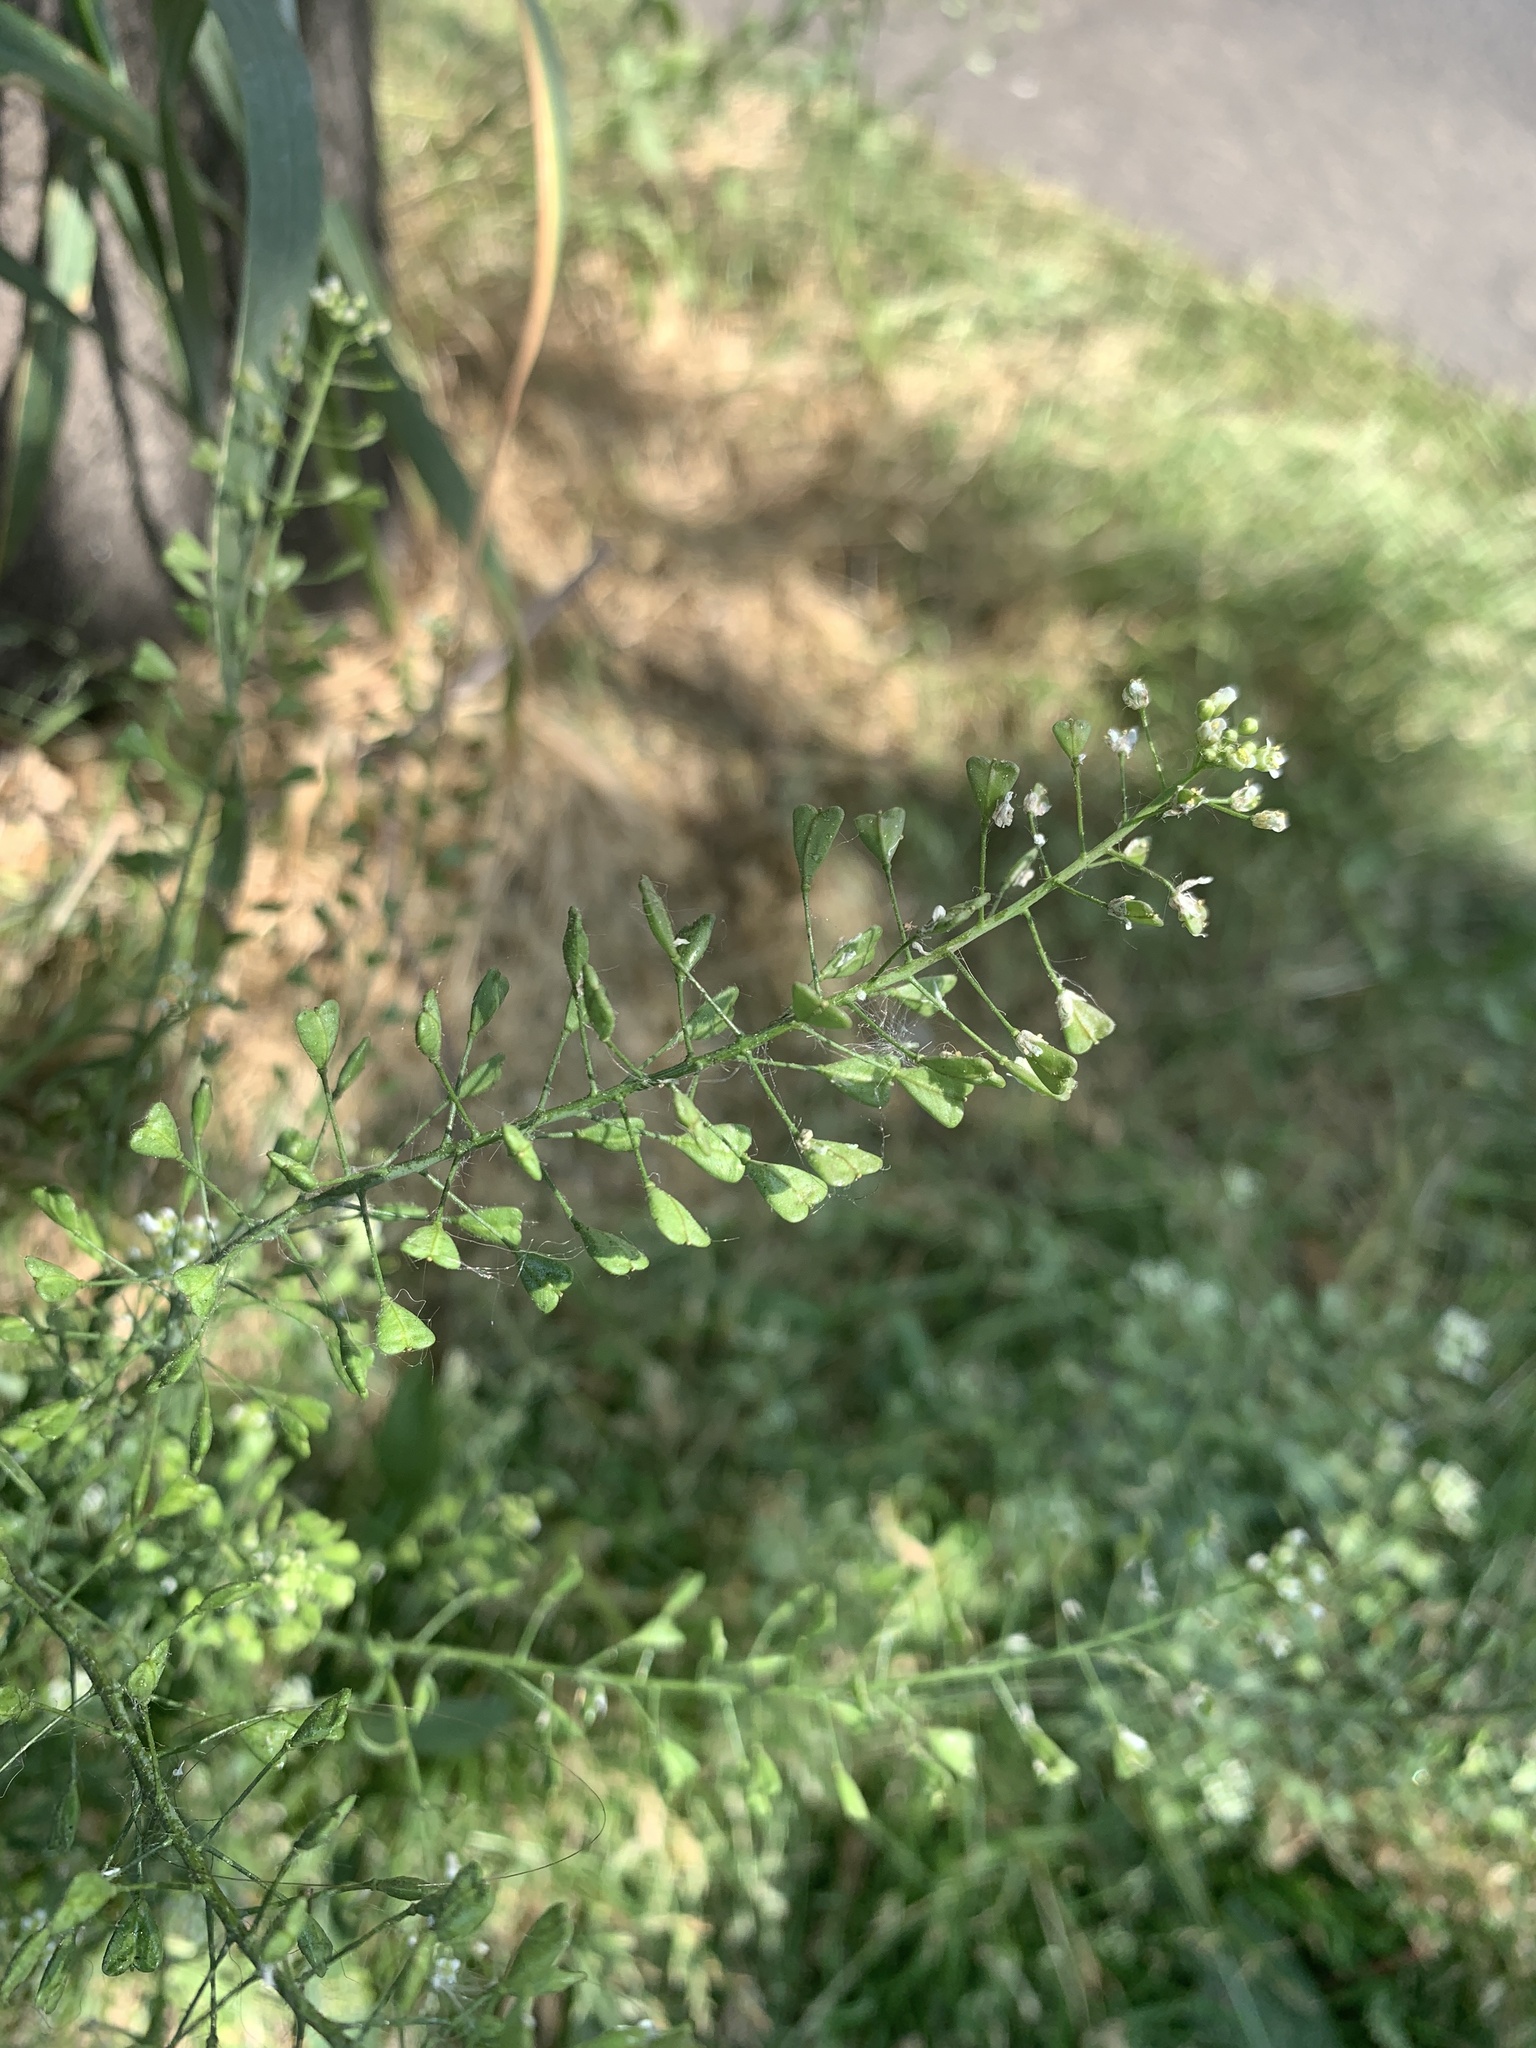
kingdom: Plantae
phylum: Tracheophyta
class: Magnoliopsida
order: Brassicales
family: Brassicaceae
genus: Capsella
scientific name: Capsella bursa-pastoris
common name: Shepherd's purse
